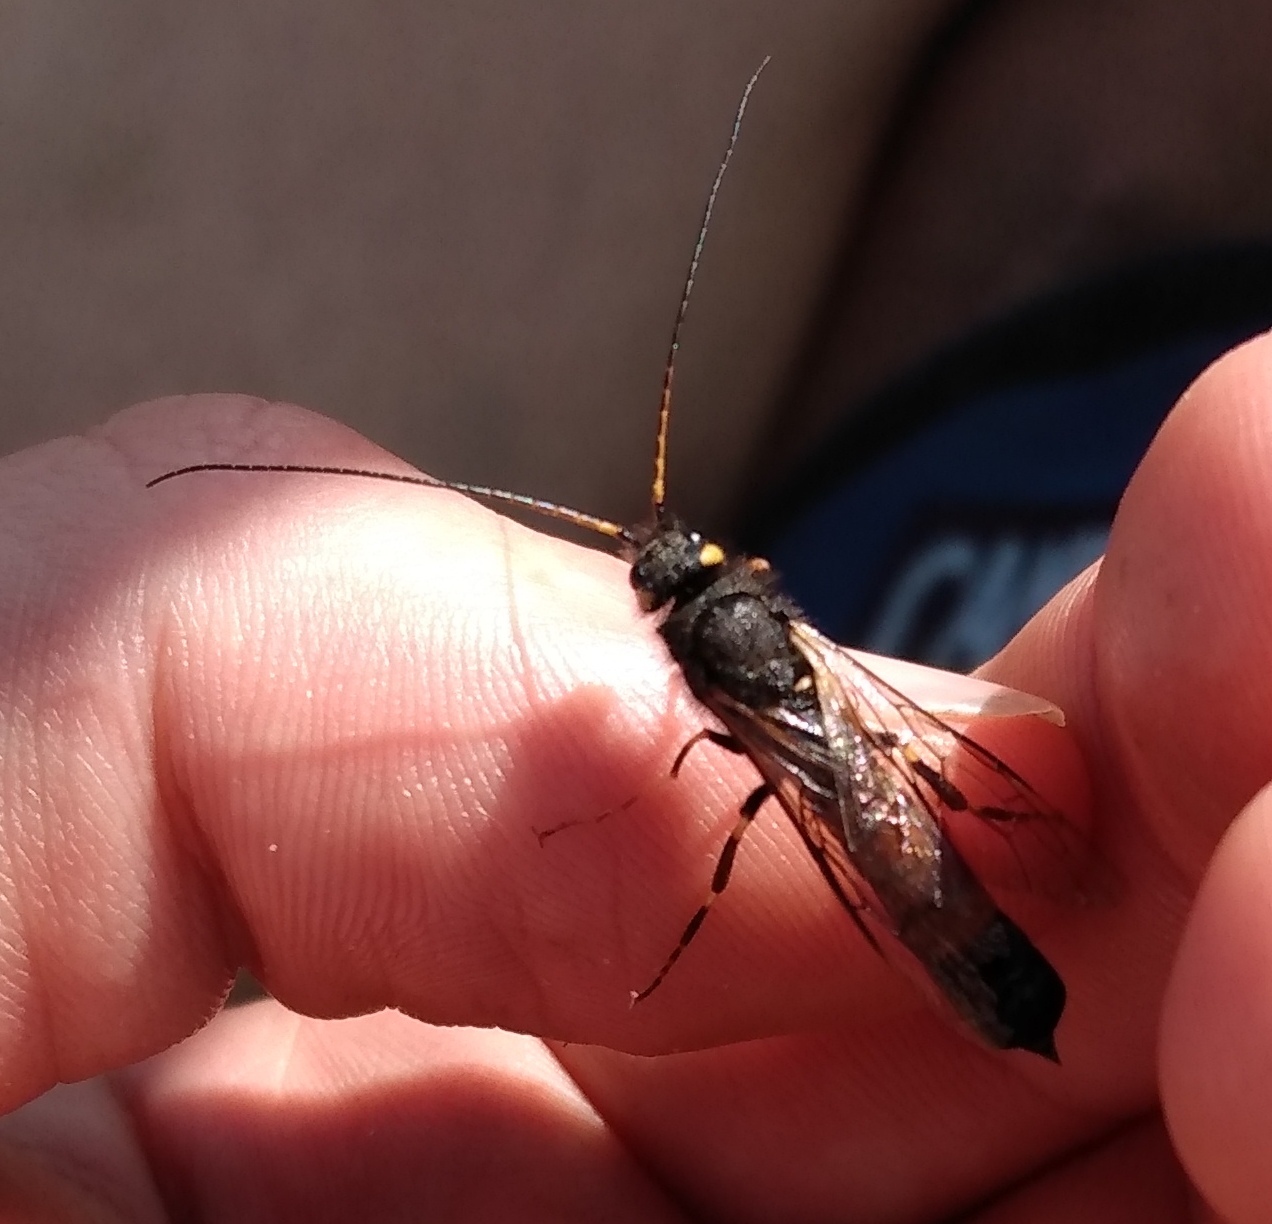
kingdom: Animalia
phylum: Arthropoda
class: Insecta
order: Hymenoptera
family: Siricidae
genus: Urocerus
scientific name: Urocerus flavicornis
